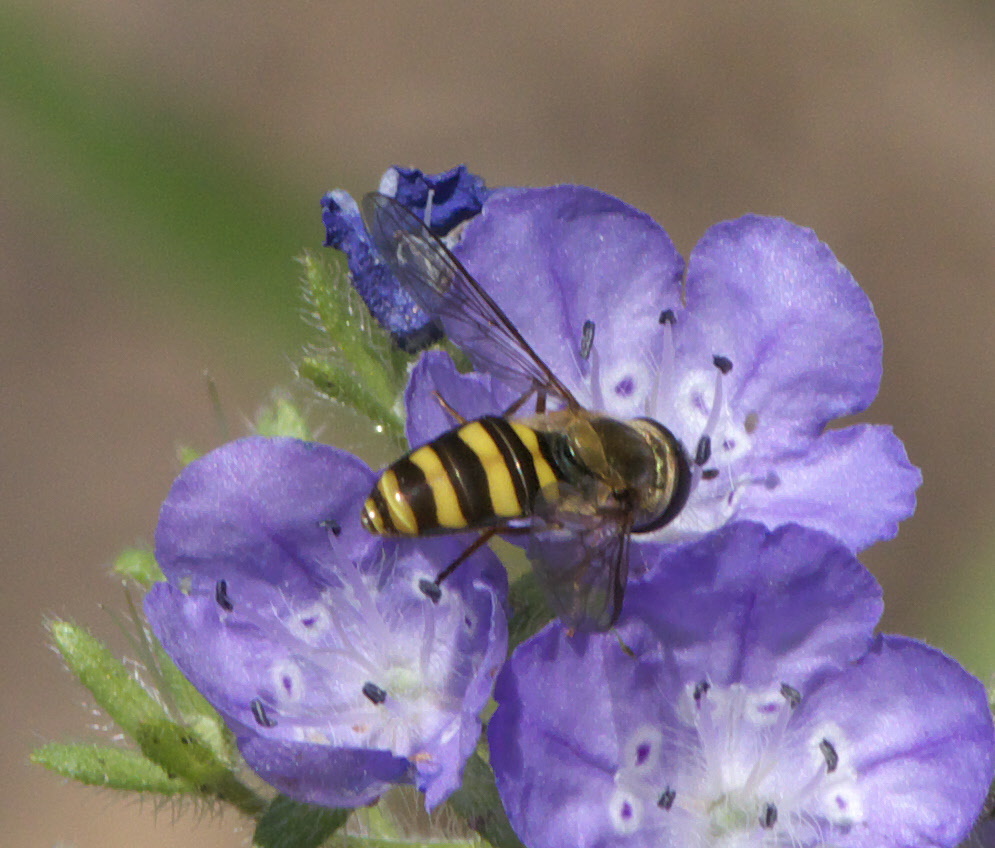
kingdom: Animalia
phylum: Arthropoda
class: Insecta
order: Diptera
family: Syrphidae
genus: Eupeodes
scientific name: Eupeodes
